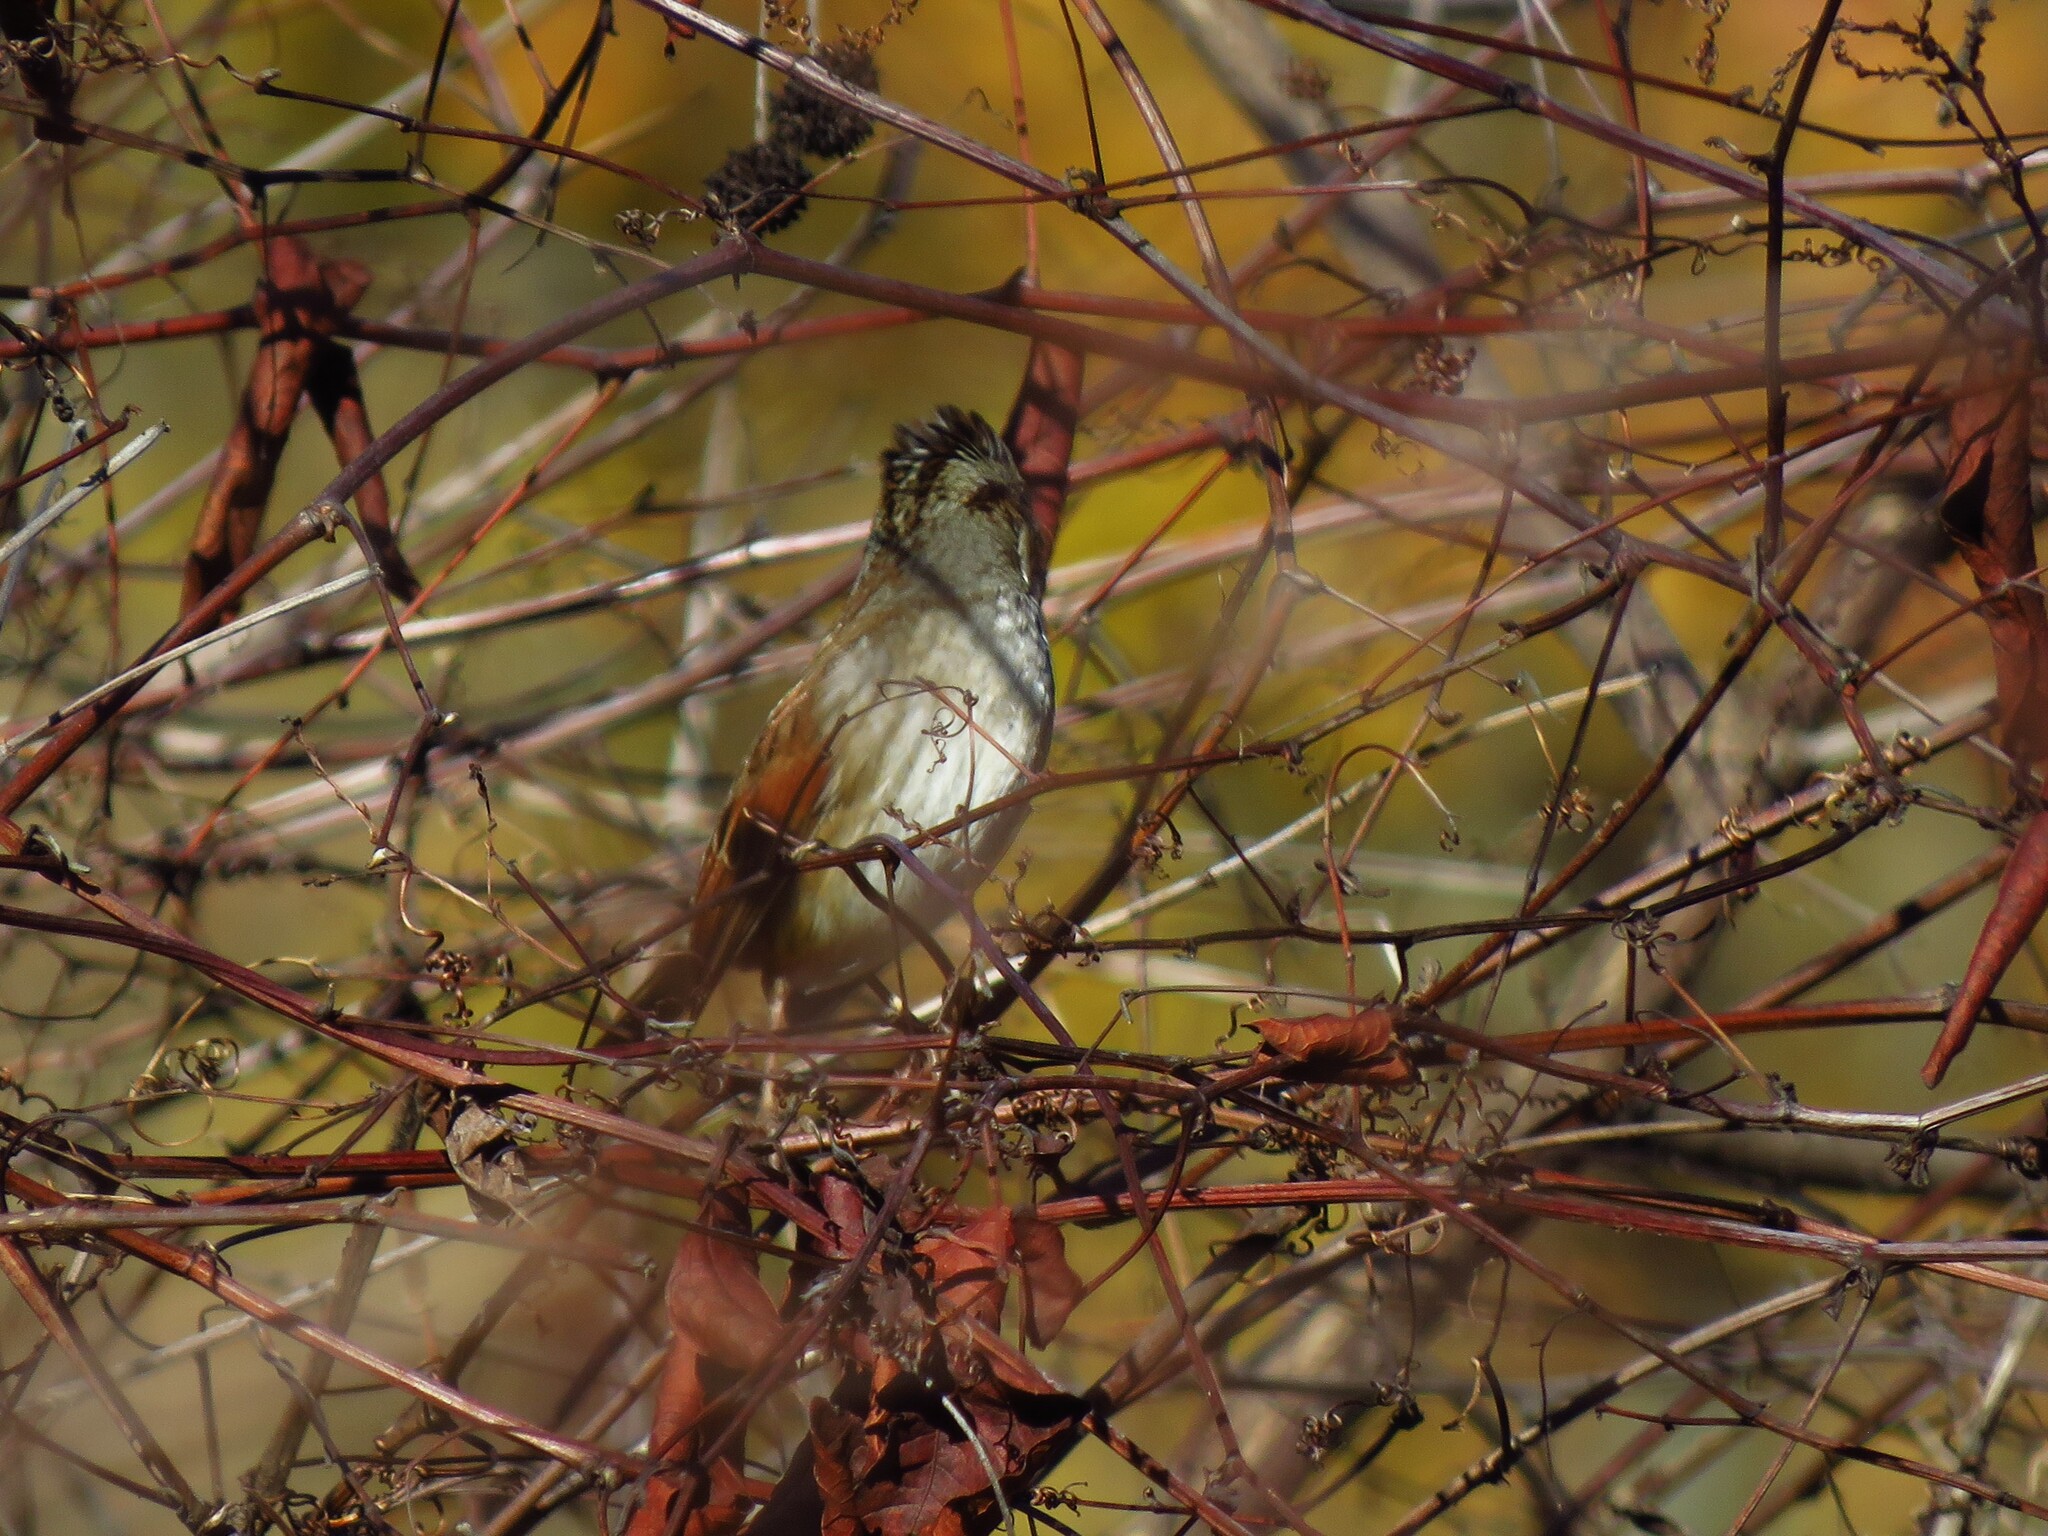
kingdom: Animalia
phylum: Chordata
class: Aves
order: Passeriformes
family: Passerellidae
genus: Melospiza
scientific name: Melospiza georgiana
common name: Swamp sparrow
